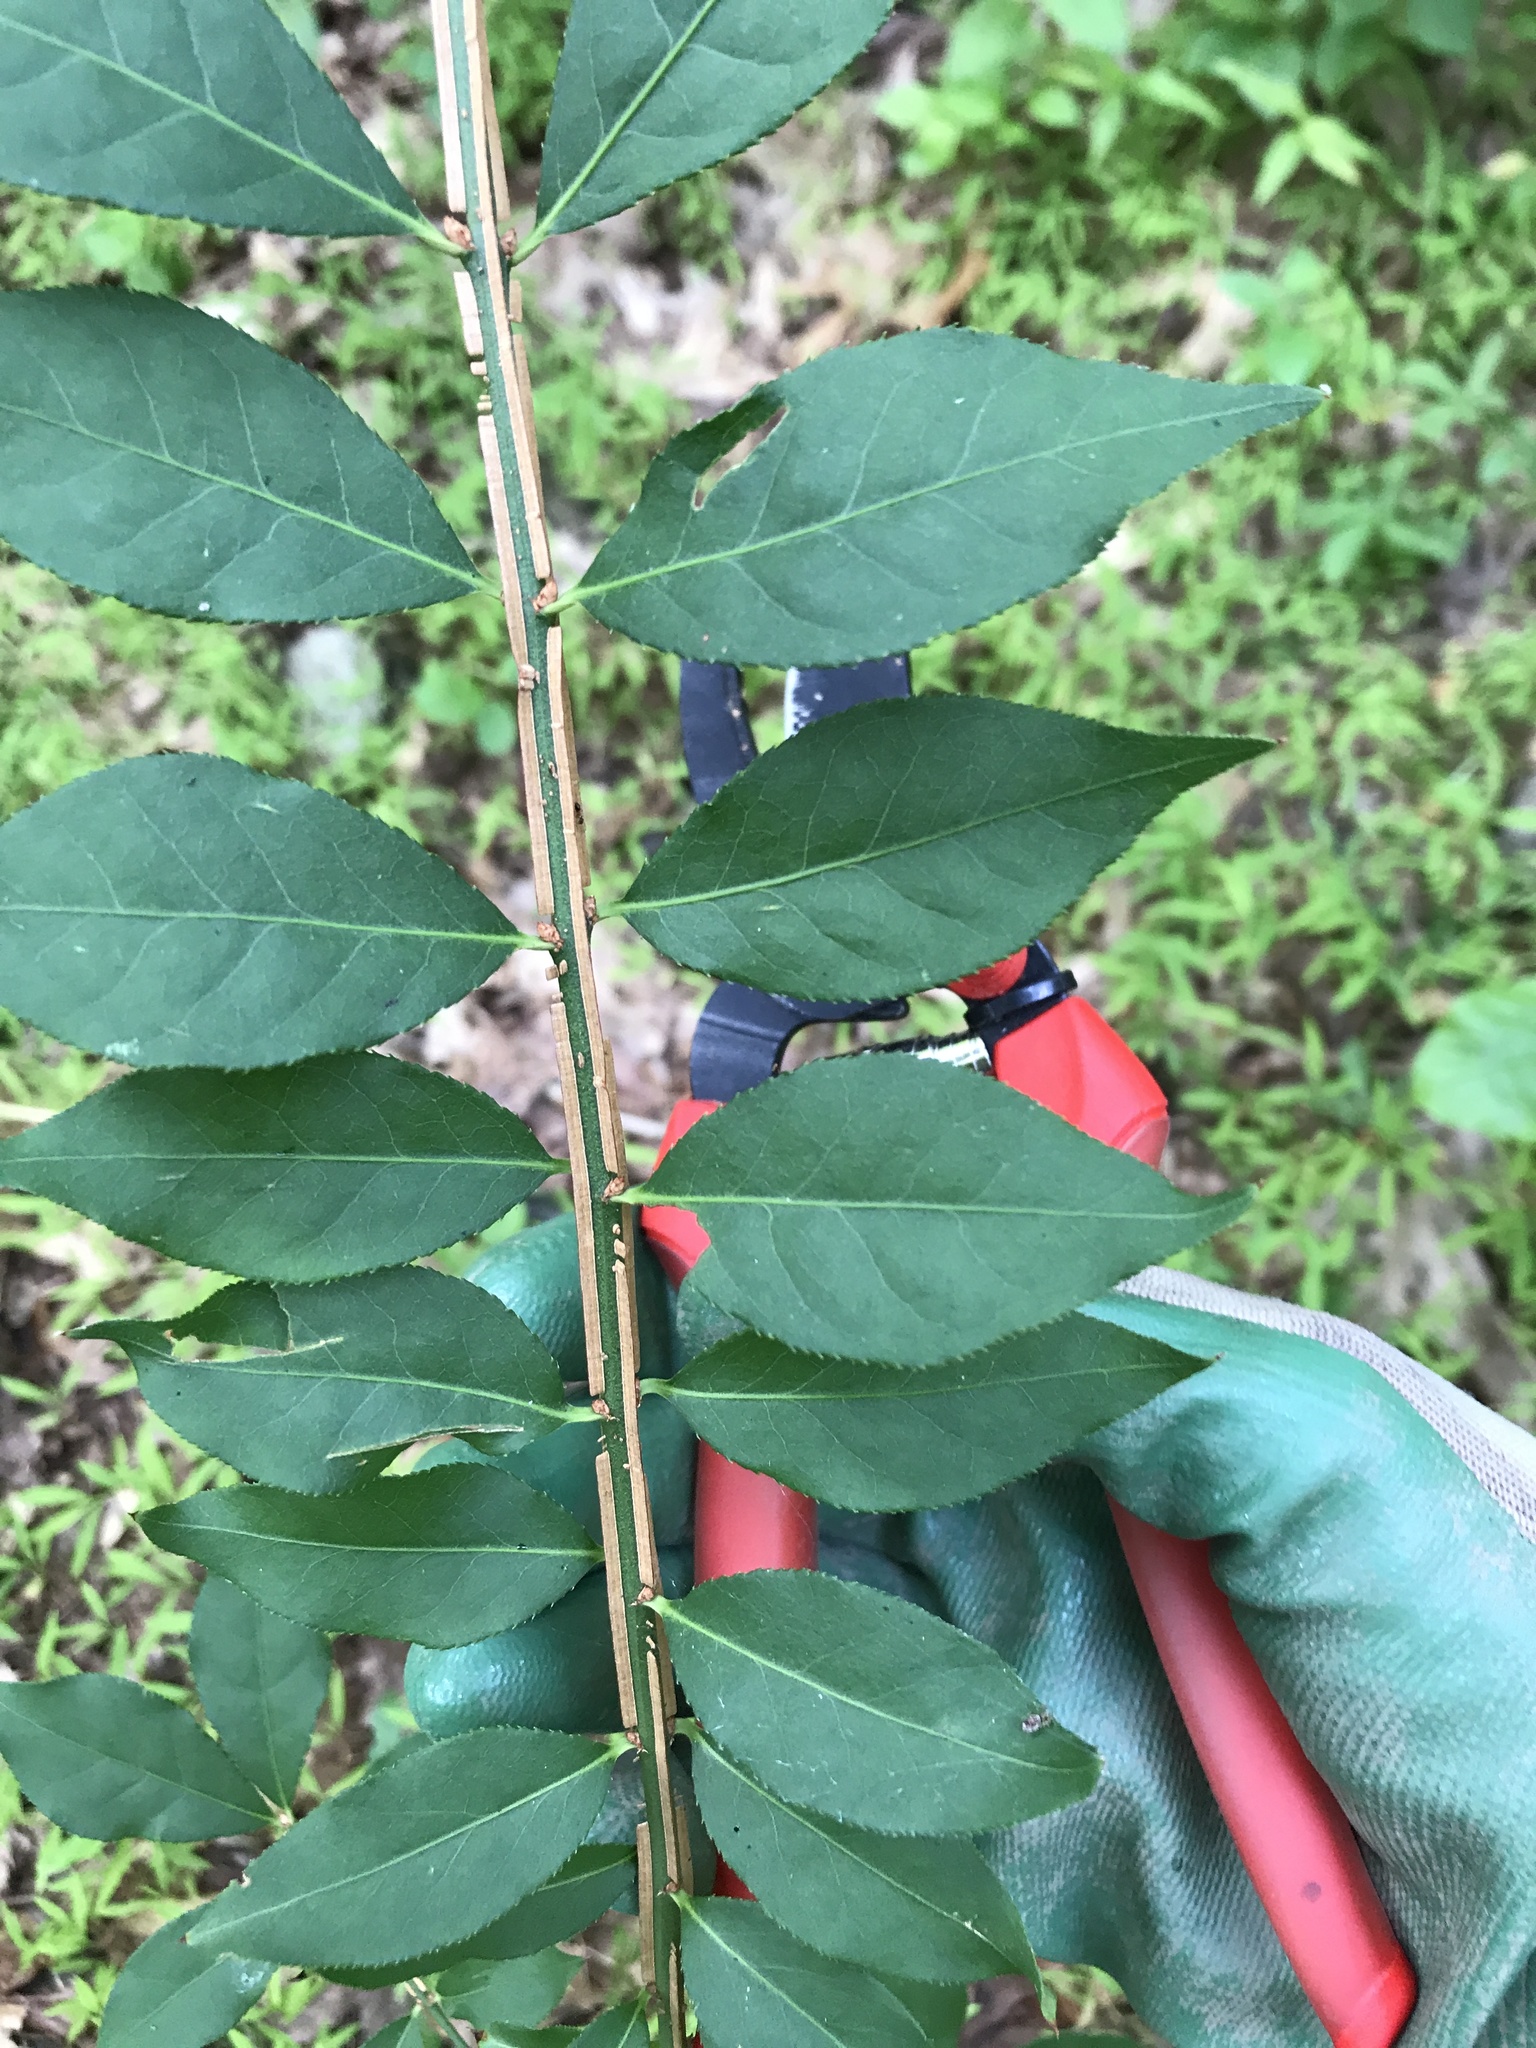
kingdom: Plantae
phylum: Tracheophyta
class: Magnoliopsida
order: Celastrales
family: Celastraceae
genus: Euonymus
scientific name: Euonymus alatus
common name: Winged euonymus
